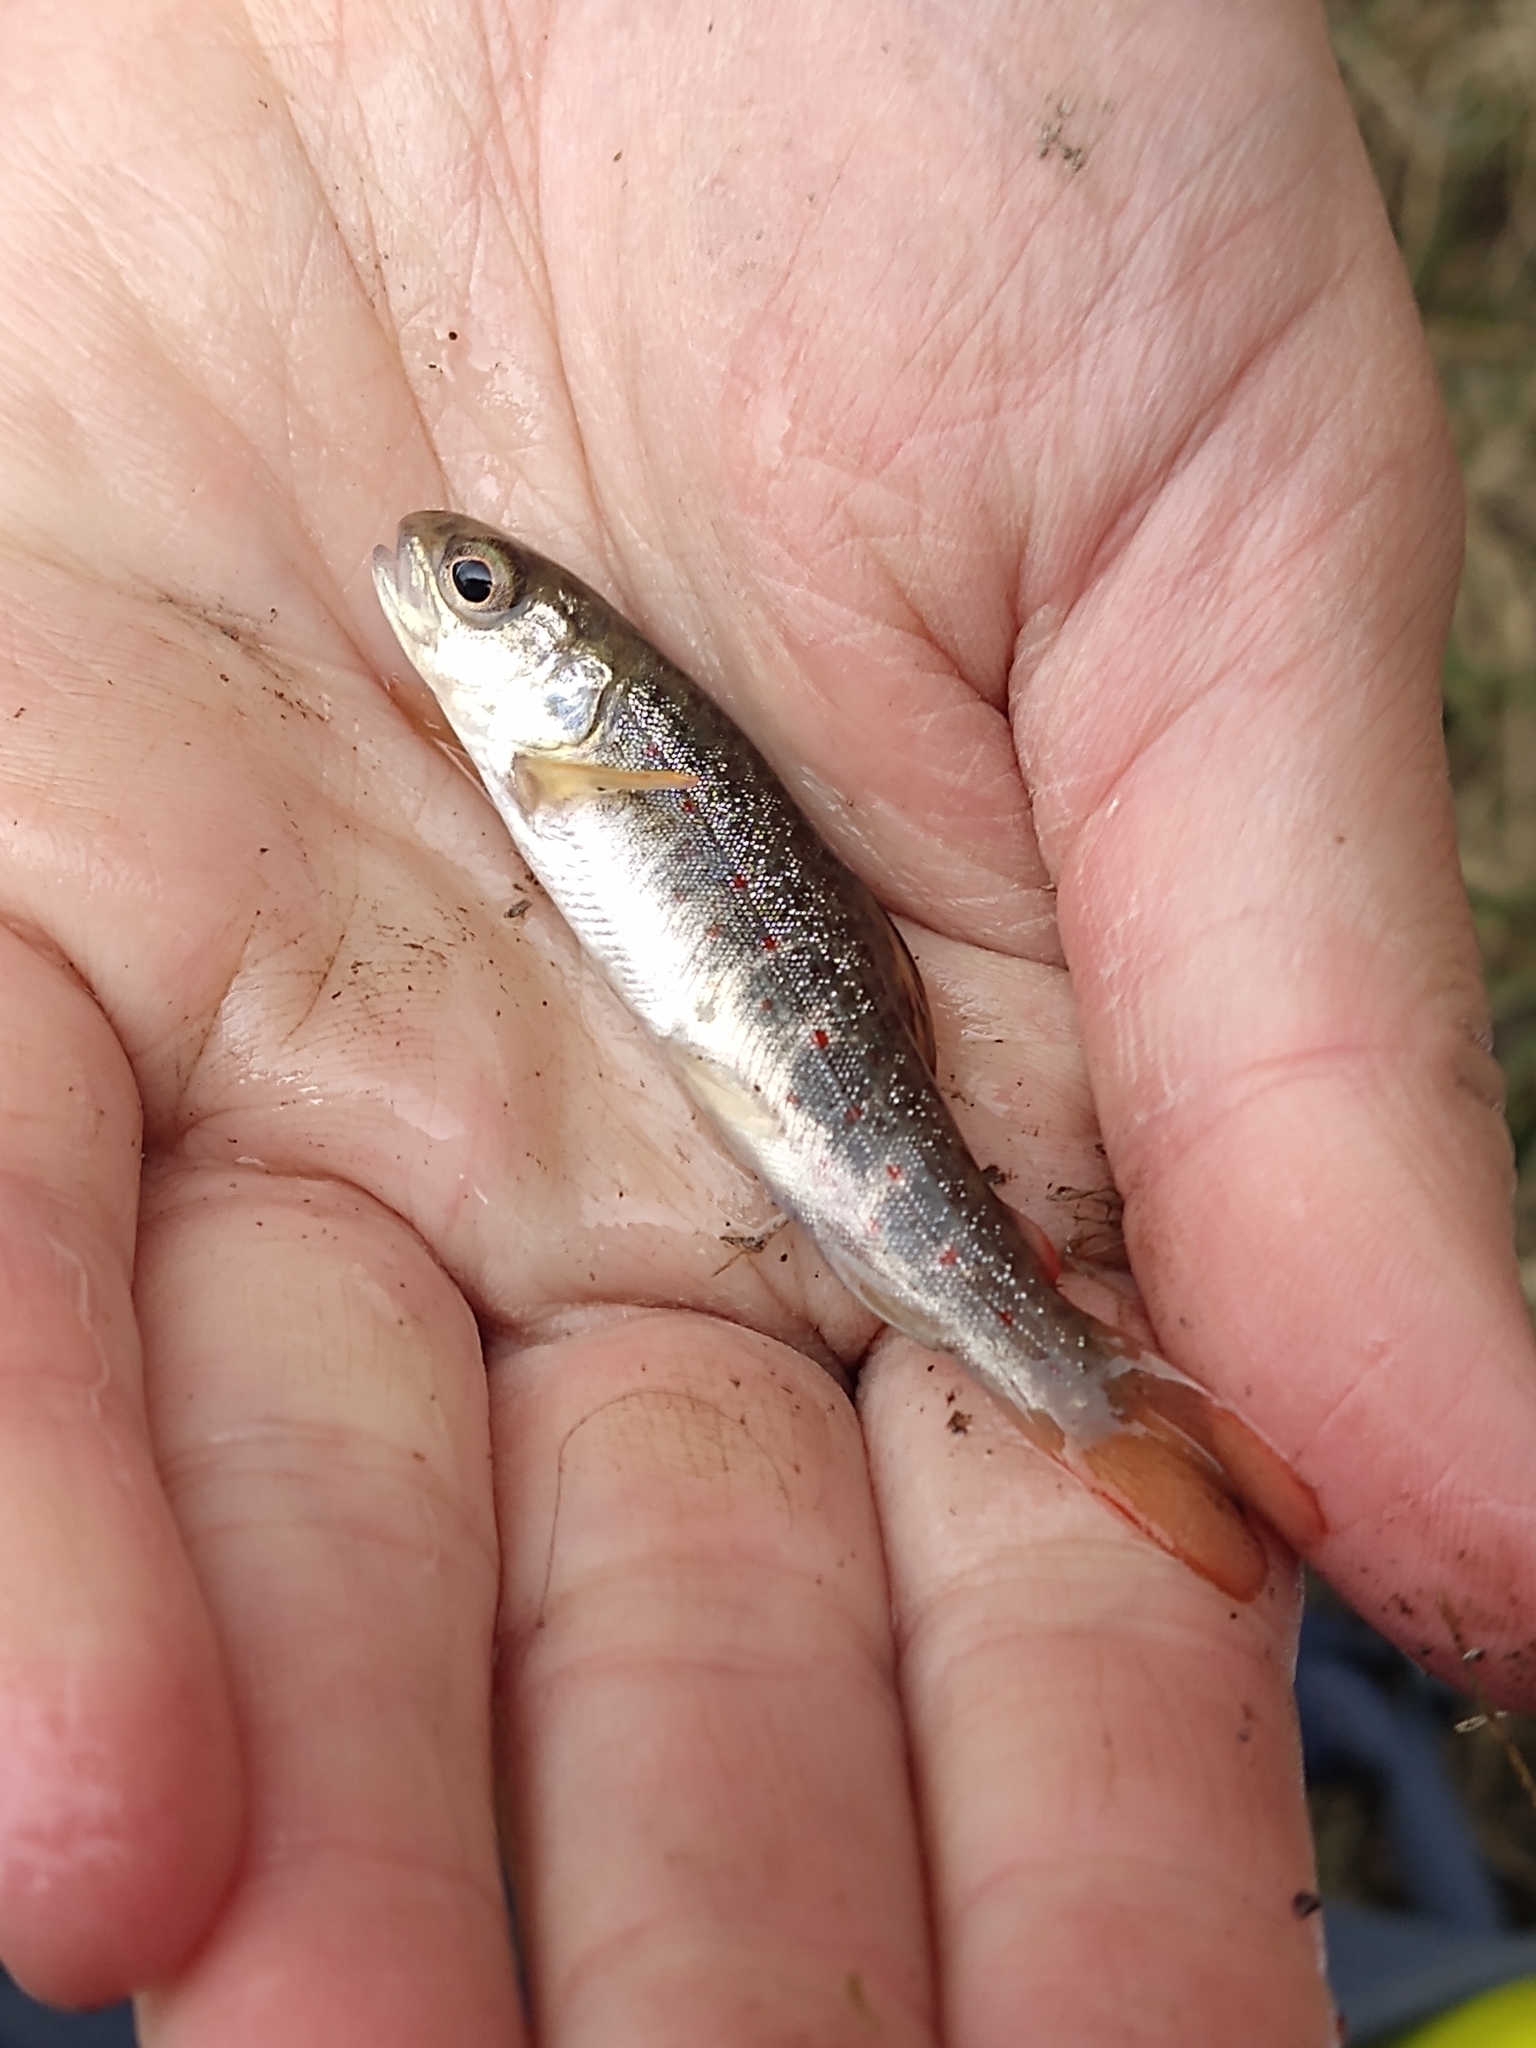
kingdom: Animalia
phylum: Chordata
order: Salmoniformes
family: Salmonidae
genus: Salmo
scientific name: Salmo trutta
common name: Brown trout
